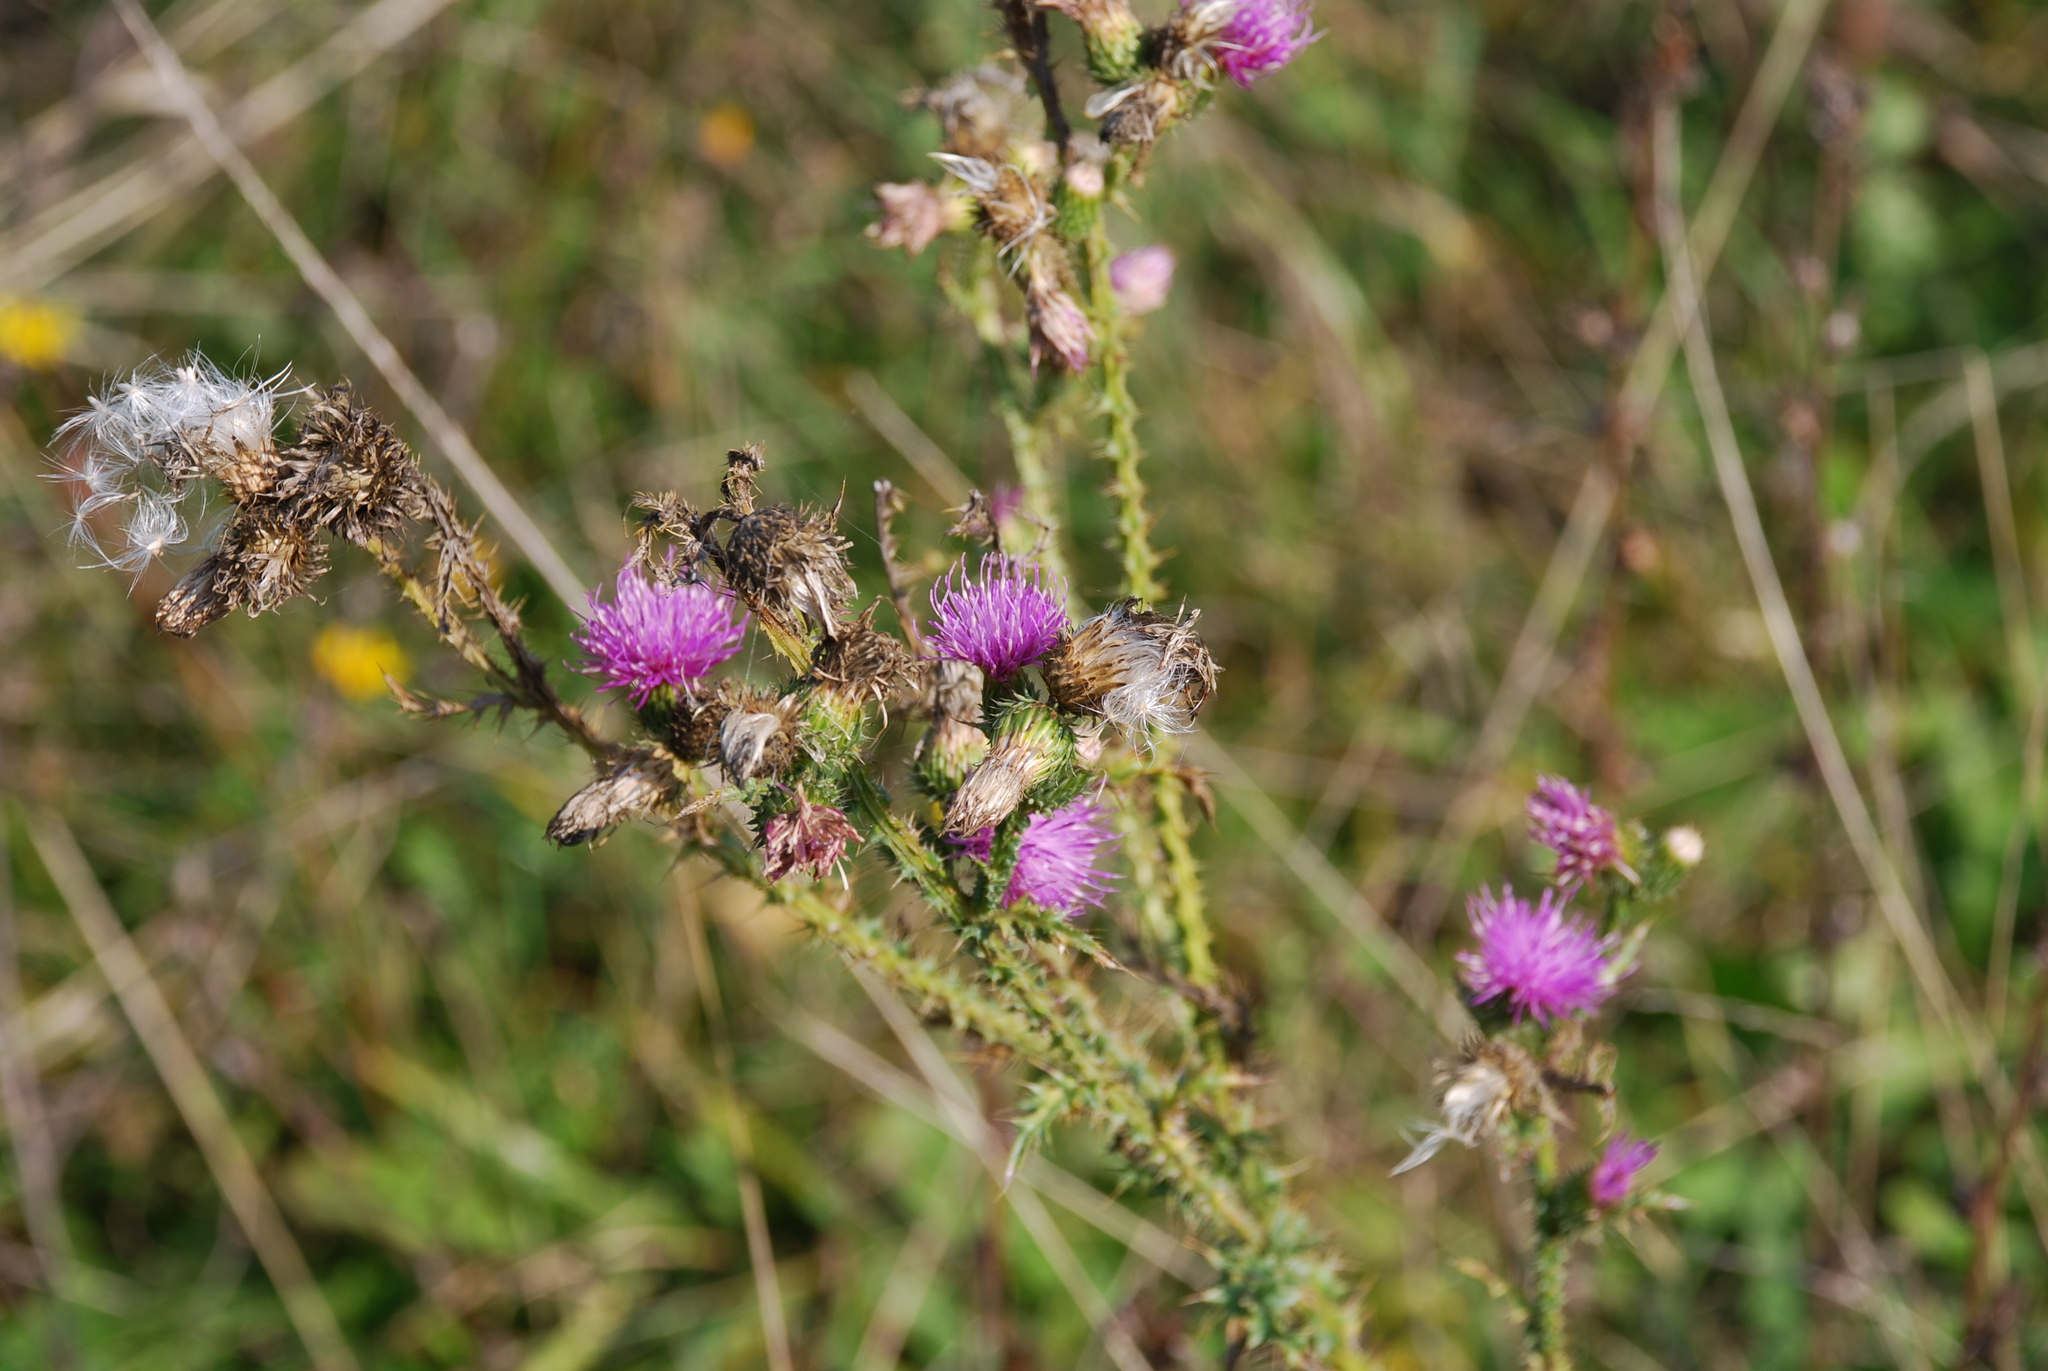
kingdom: Plantae
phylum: Tracheophyta
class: Magnoliopsida
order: Asterales
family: Asteraceae
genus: Carduus
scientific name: Carduus acanthoides
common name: Plumeless thistle
